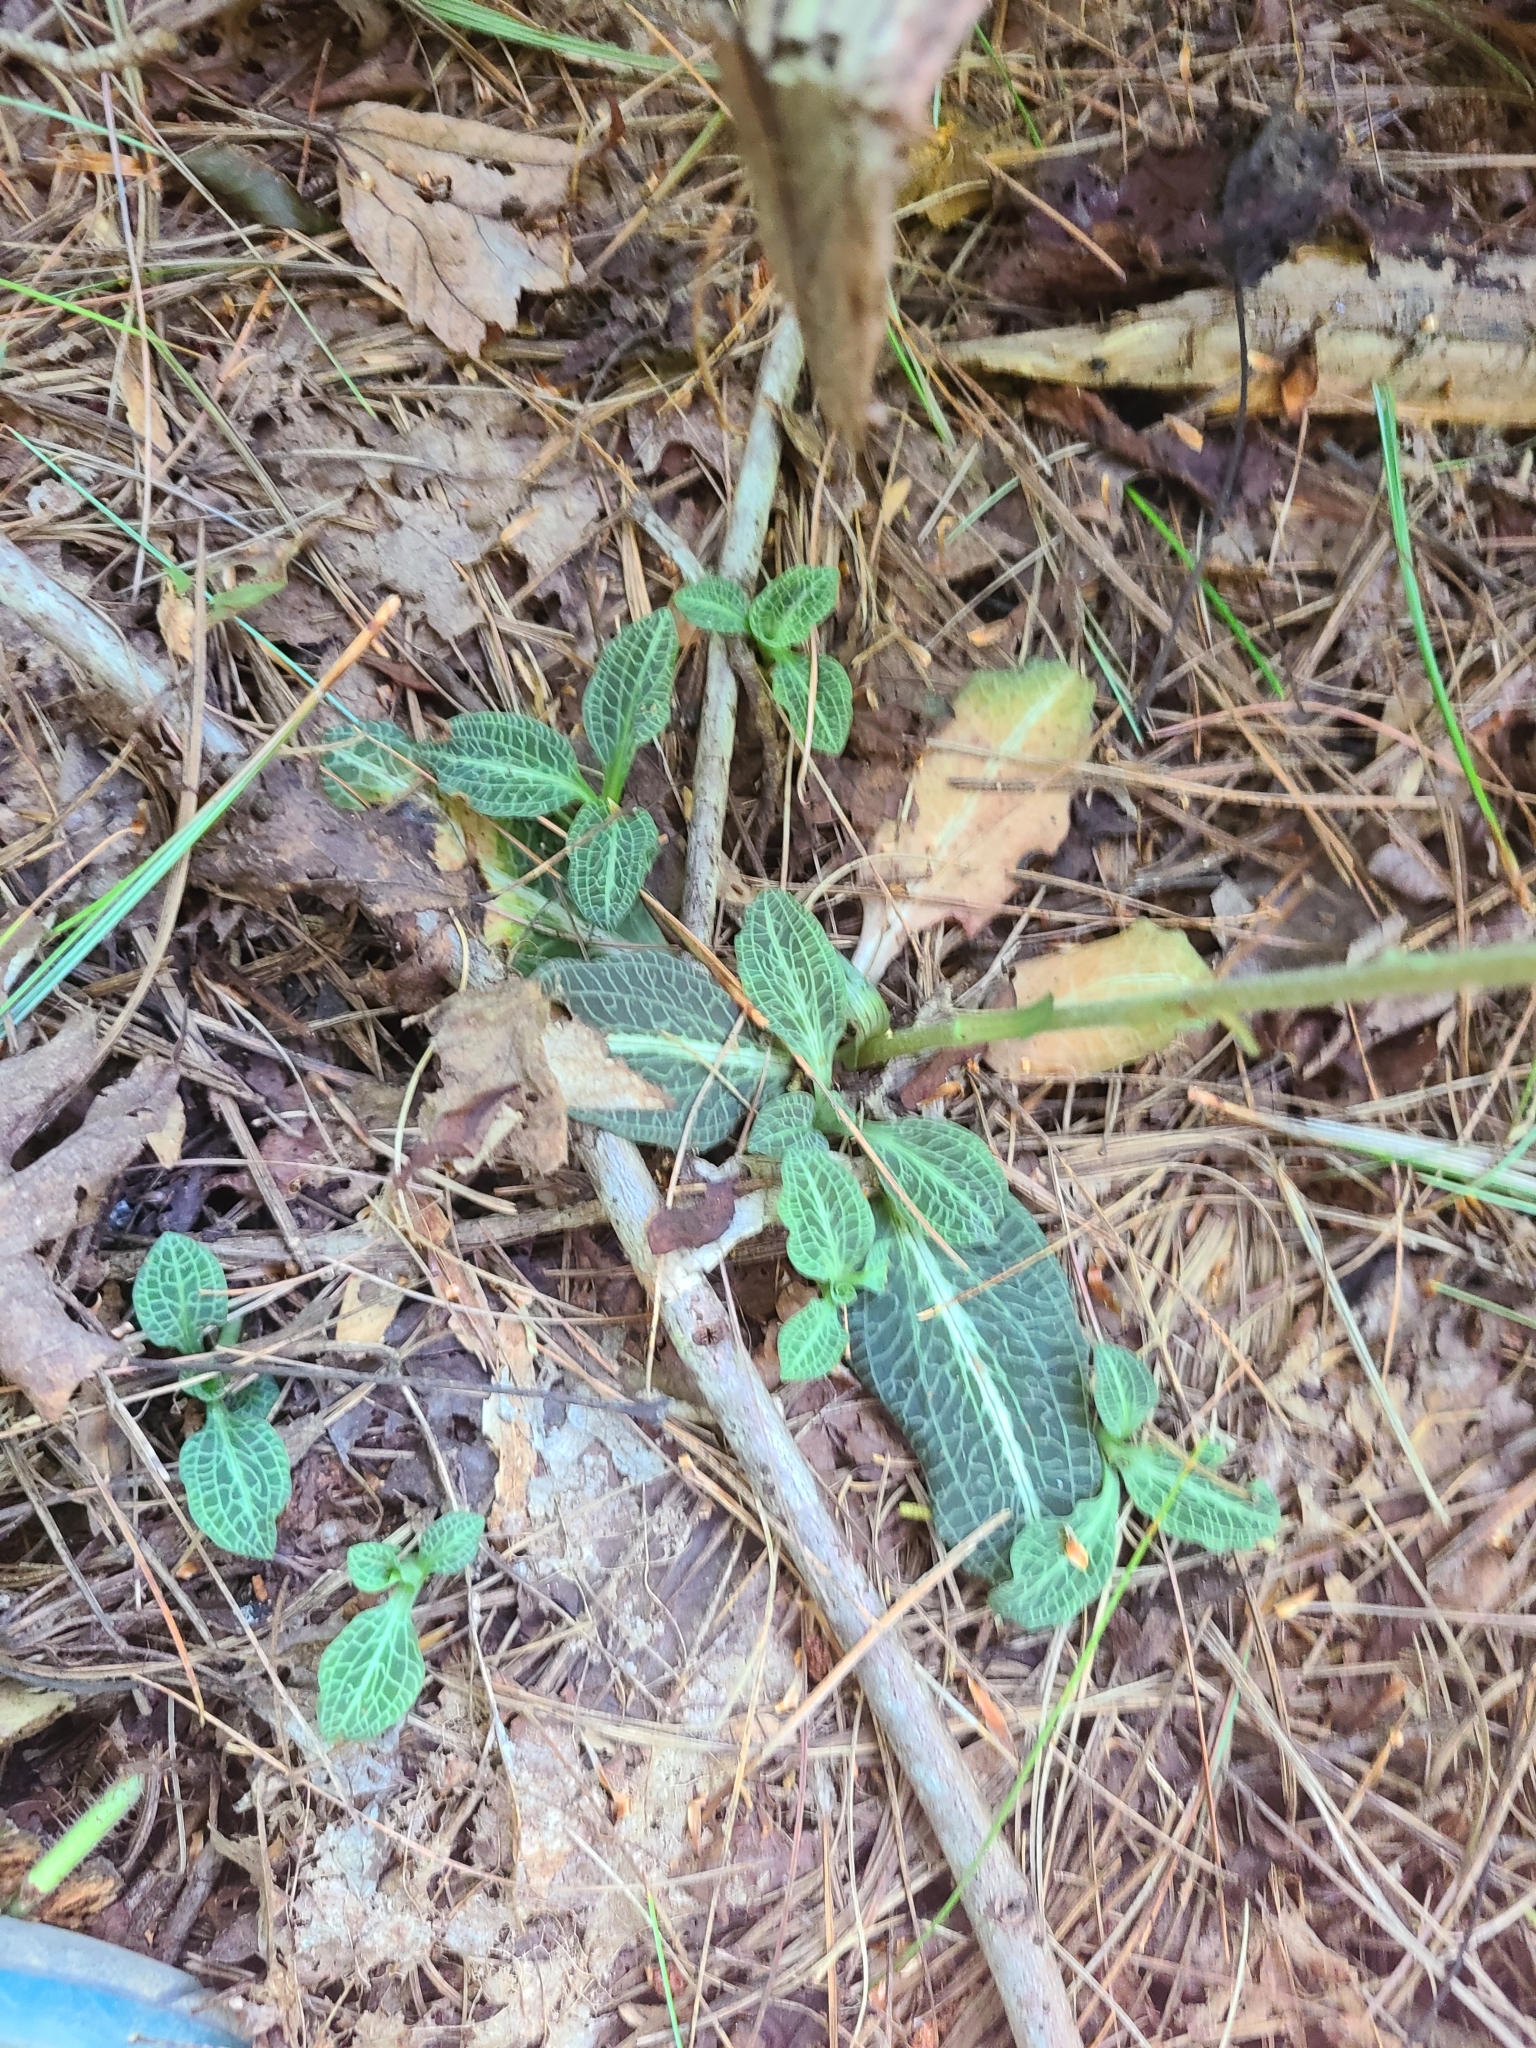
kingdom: Plantae
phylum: Tracheophyta
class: Liliopsida
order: Asparagales
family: Orchidaceae
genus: Goodyera
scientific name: Goodyera pubescens
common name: Downy rattlesnake-plantain
